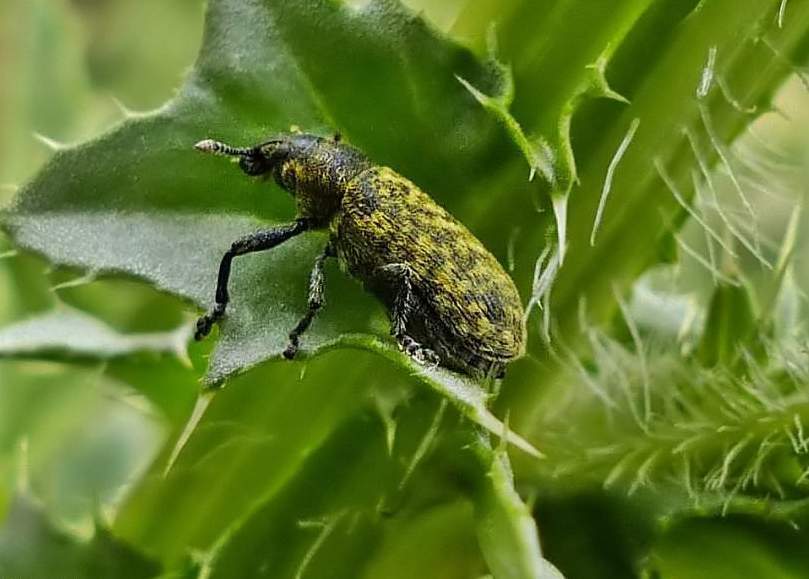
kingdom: Animalia
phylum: Arthropoda
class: Insecta
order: Coleoptera
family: Curculionidae
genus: Rhinocyllus
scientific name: Rhinocyllus conicus
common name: Weevil
